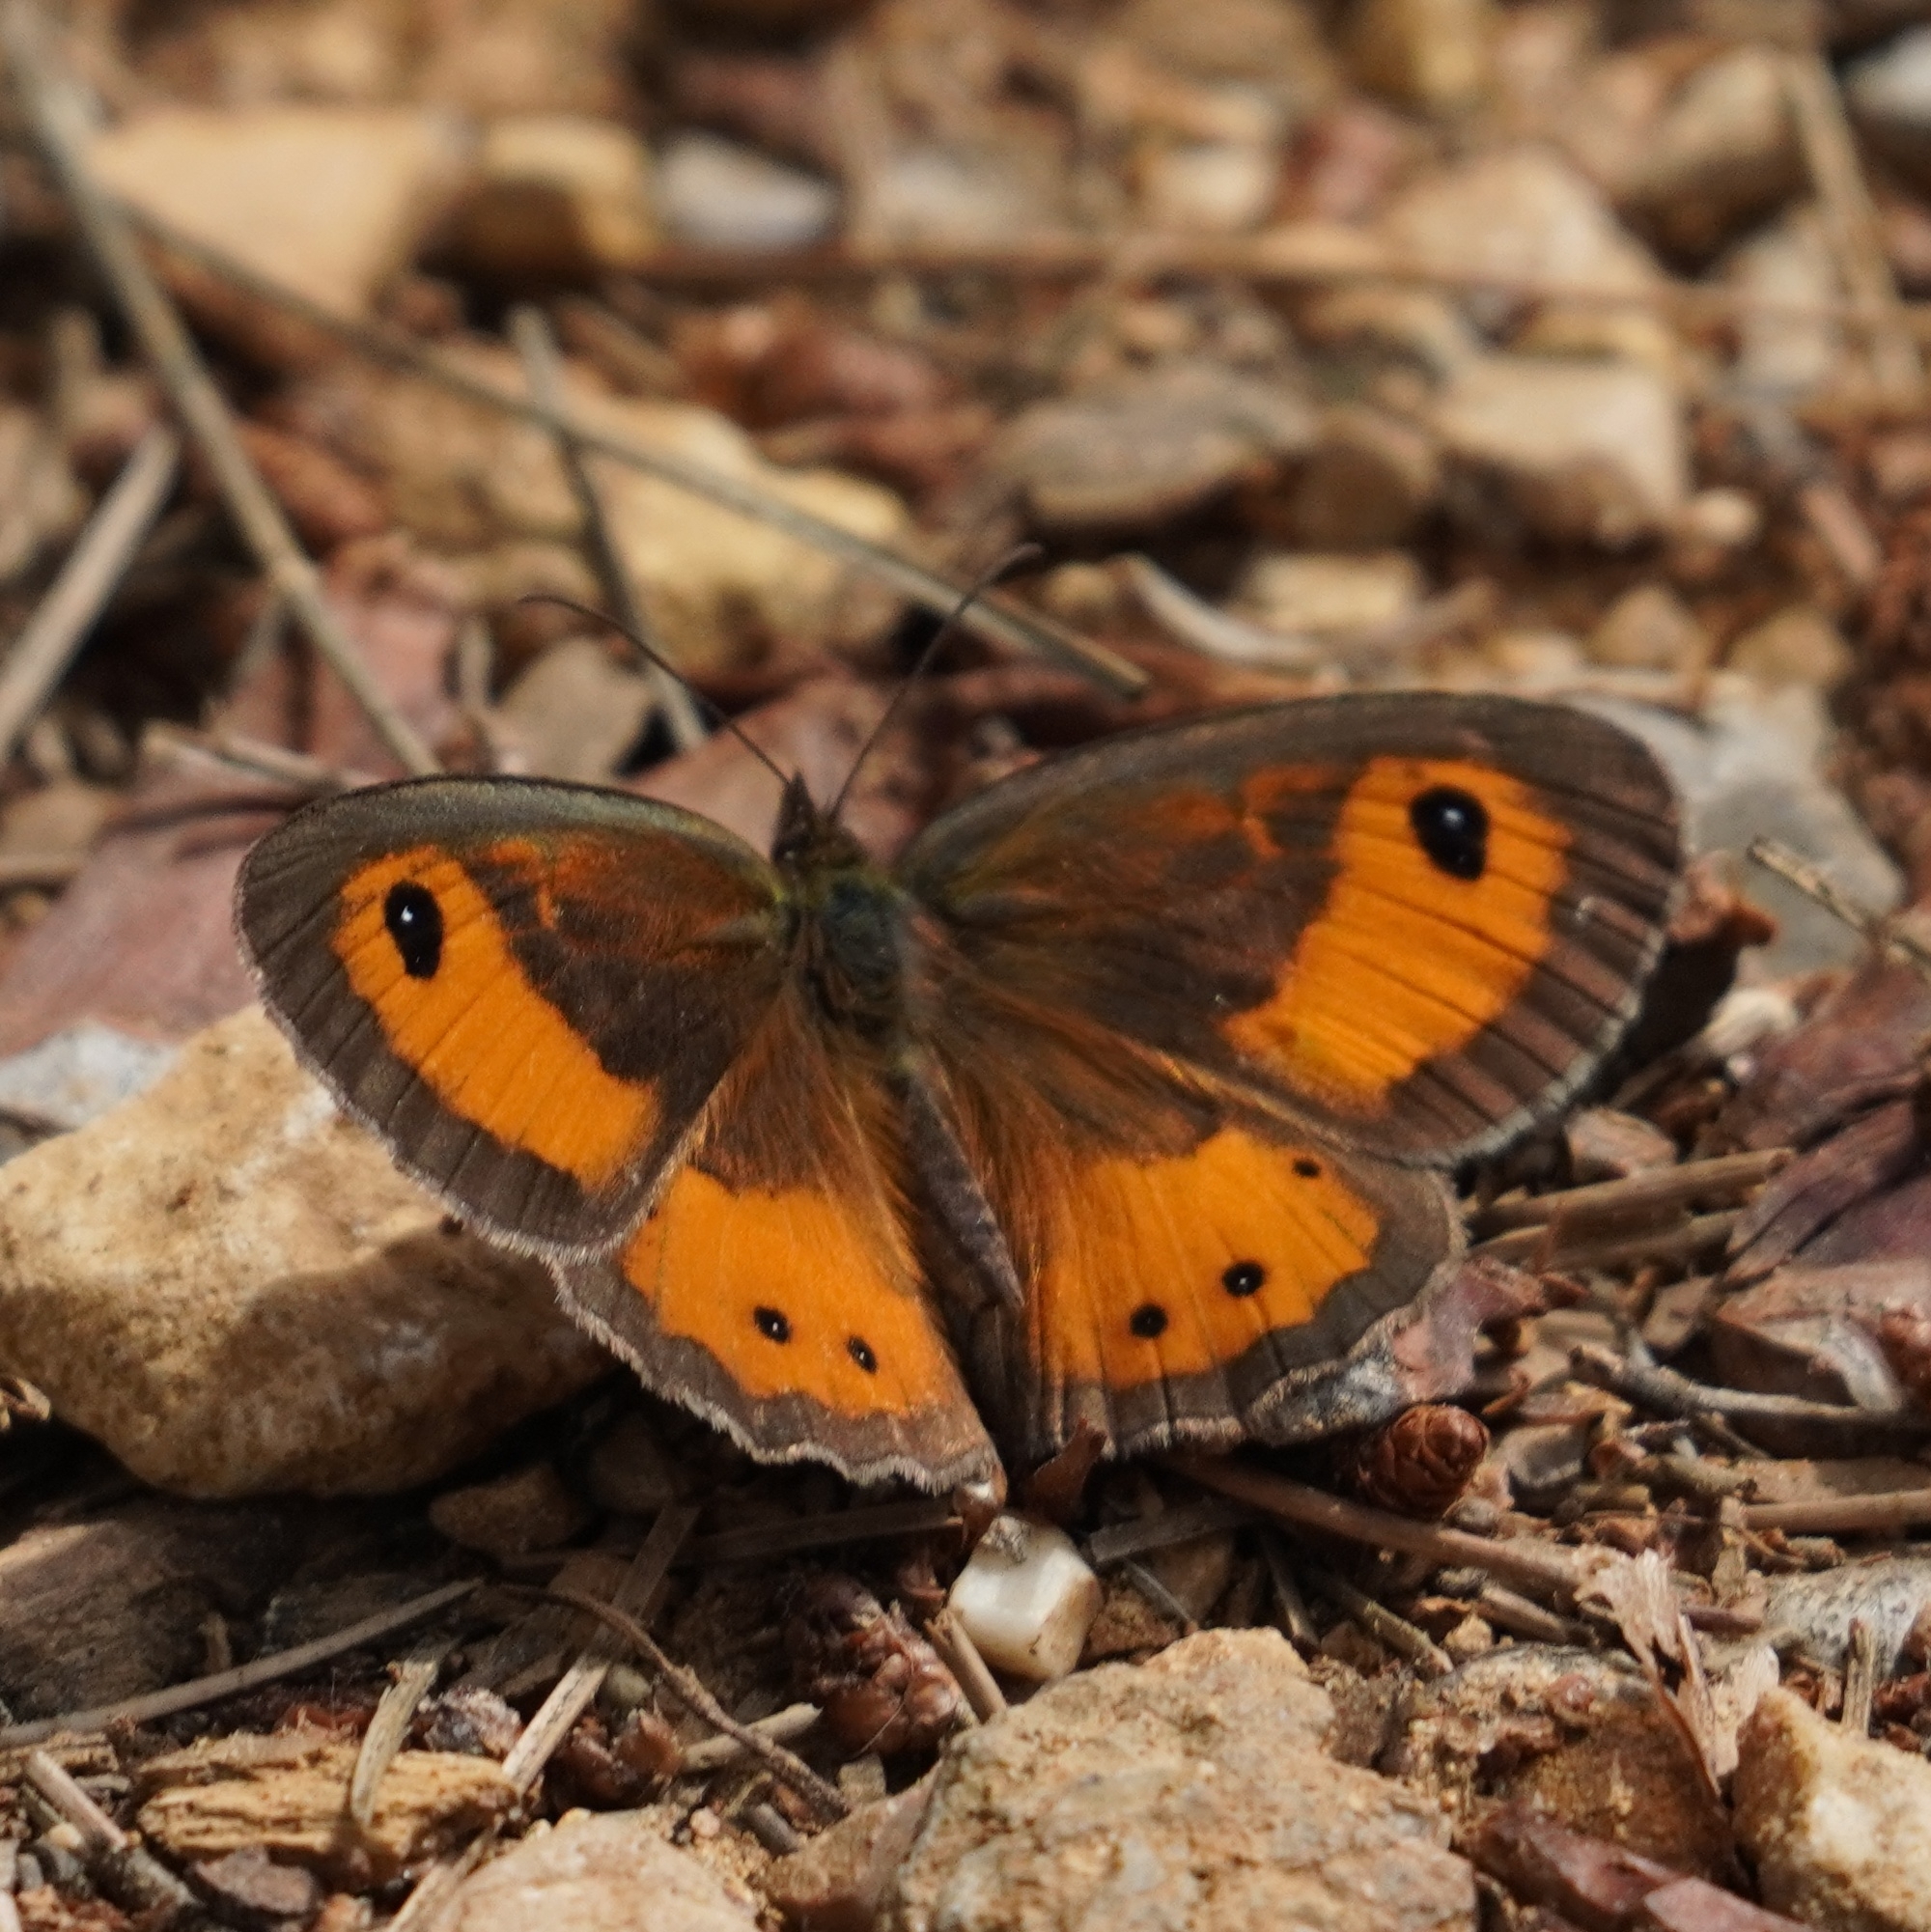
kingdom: Animalia
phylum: Arthropoda
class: Insecta
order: Lepidoptera
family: Nymphalidae
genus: Pyronia
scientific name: Pyronia bathseba
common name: Spanish gatekeeper
